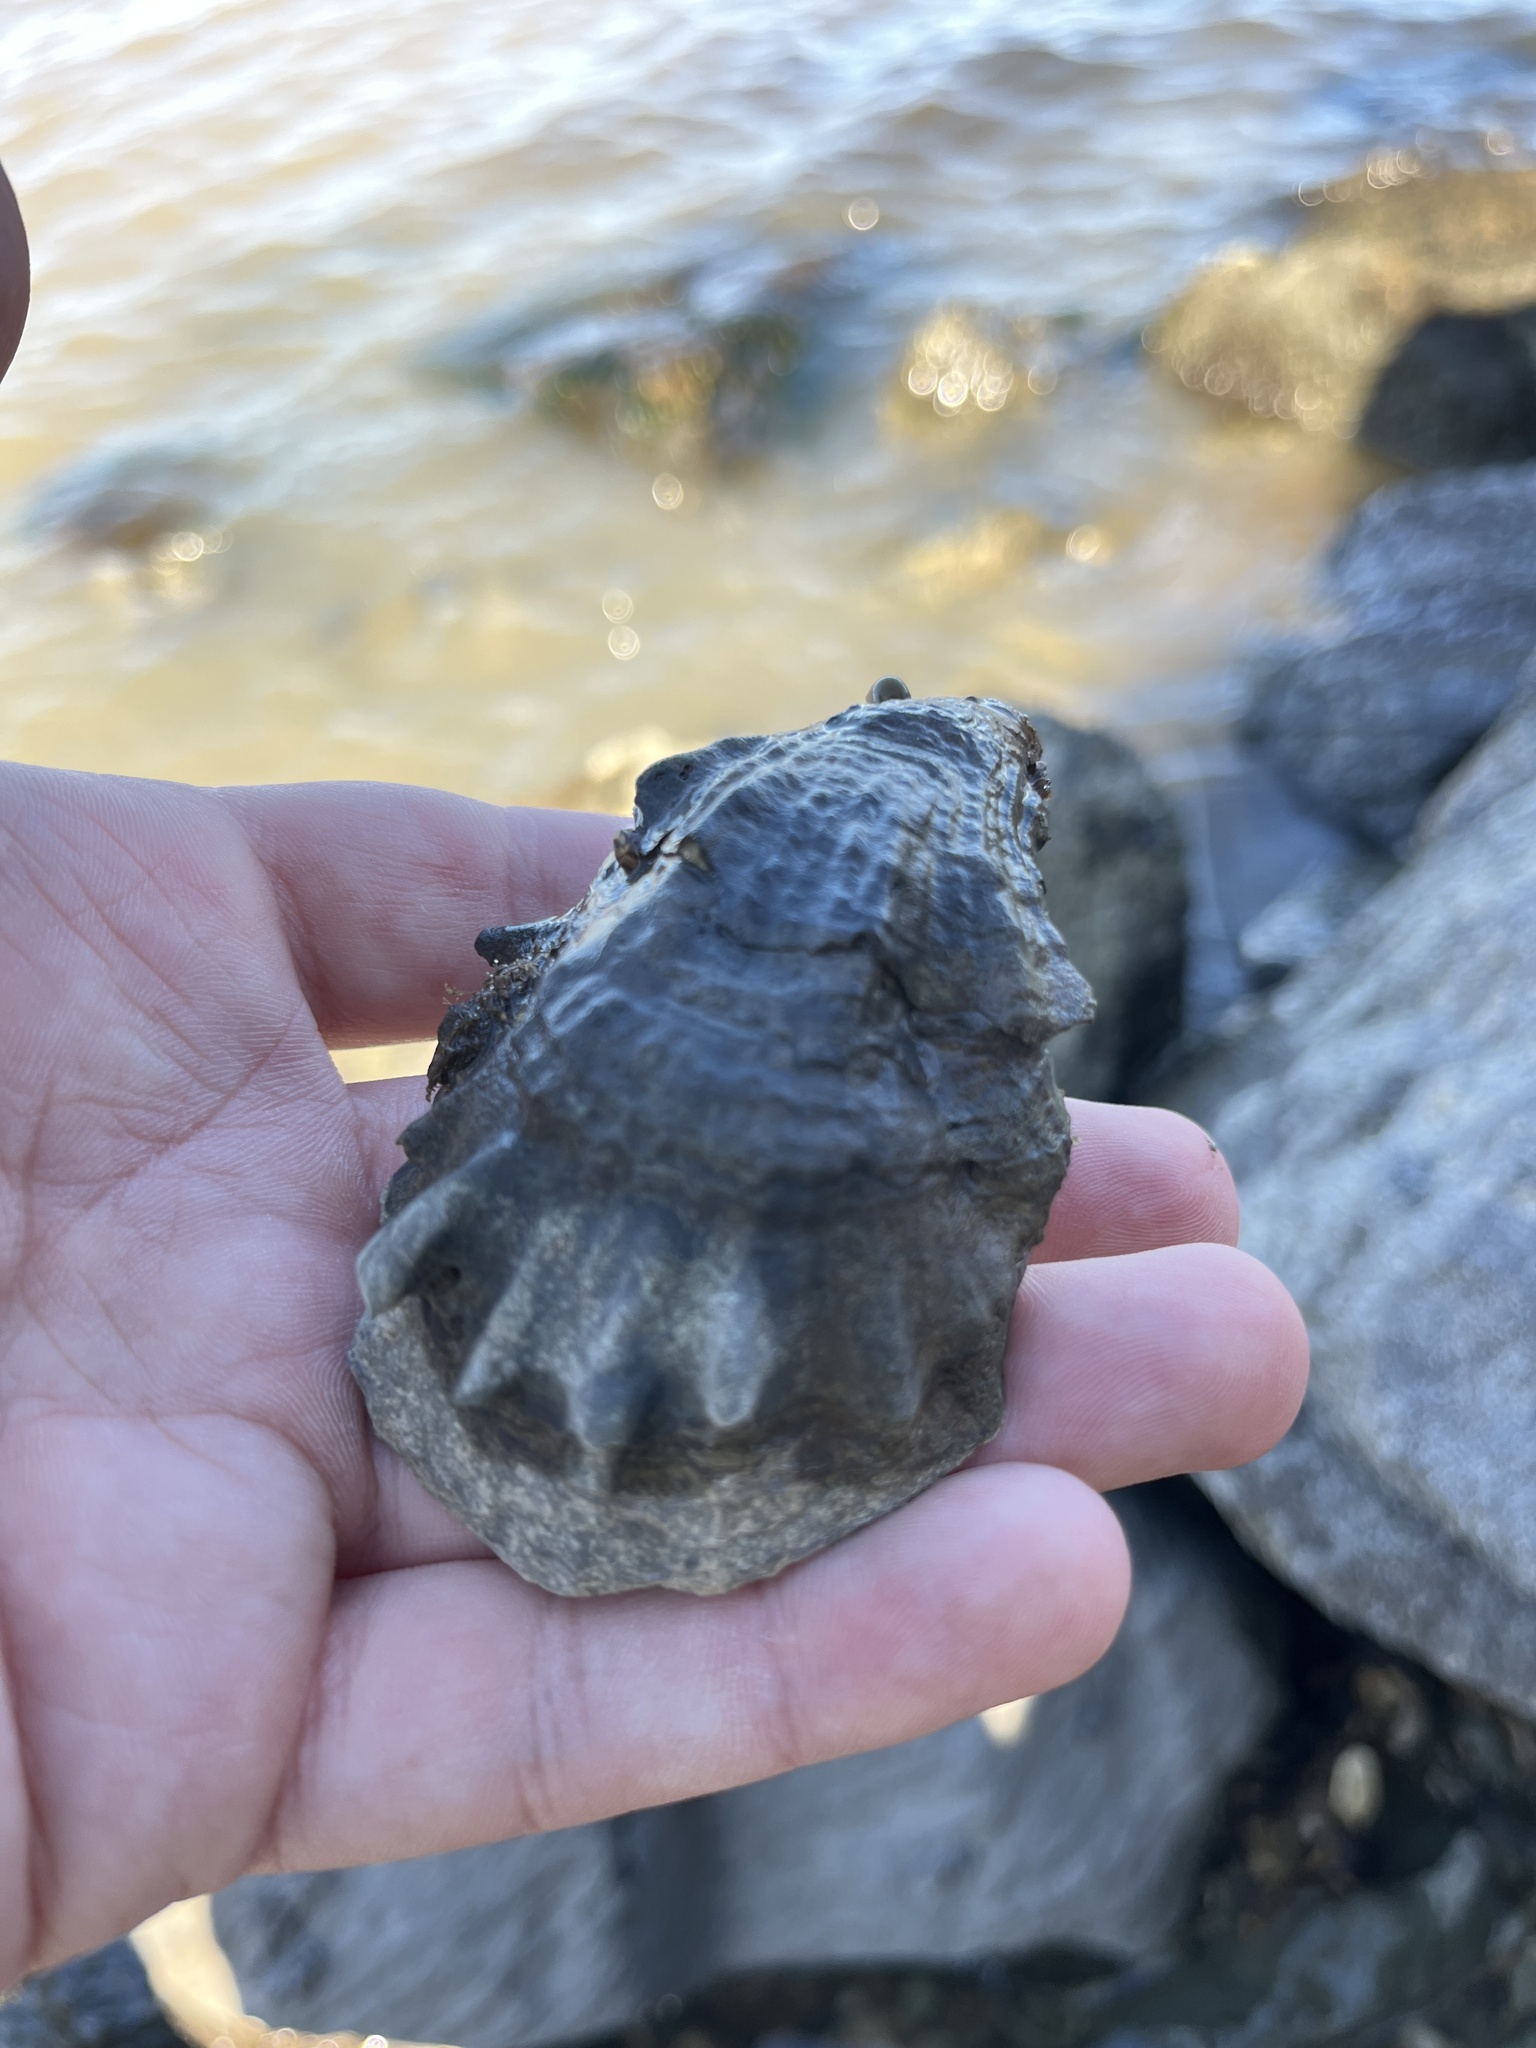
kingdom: Animalia
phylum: Mollusca
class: Bivalvia
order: Ostreida
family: Ostreidae
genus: Crassostrea
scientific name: Crassostrea virginica
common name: American oyster
